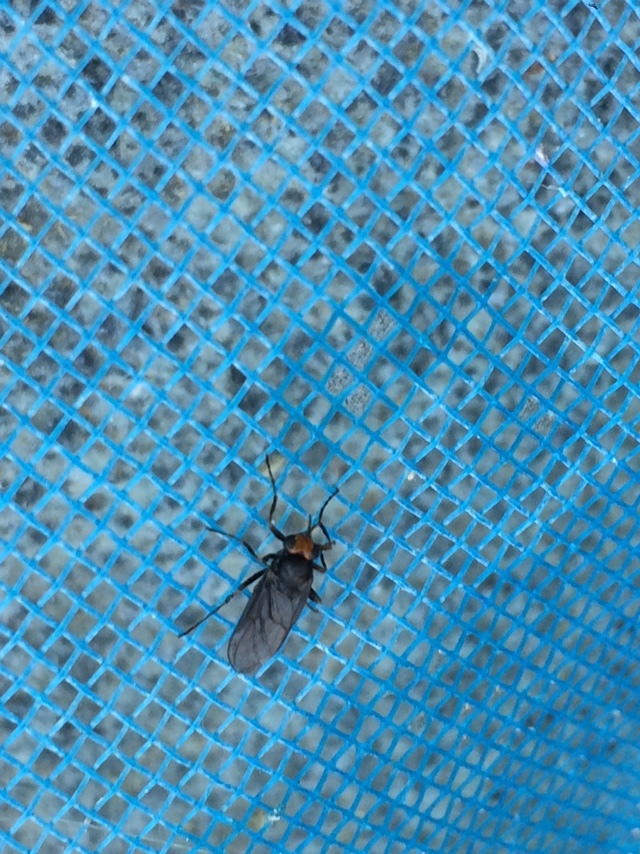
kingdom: Animalia
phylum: Arthropoda
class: Insecta
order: Diptera
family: Stratiomyidae
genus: Inopus
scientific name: Inopus rubriceps
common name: Soldier fly
